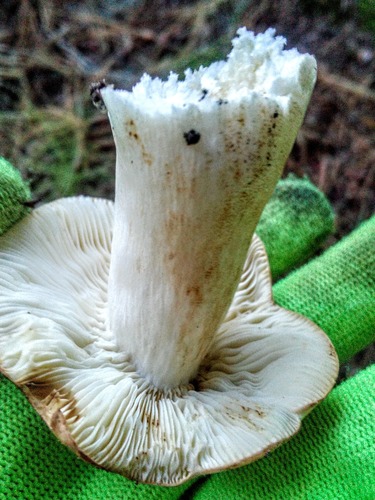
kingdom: Fungi
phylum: Basidiomycota
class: Agaricomycetes
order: Agaricales
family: Lyophyllaceae
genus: Lyophyllum
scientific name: Lyophyllum decastes
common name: Clustered domecap
